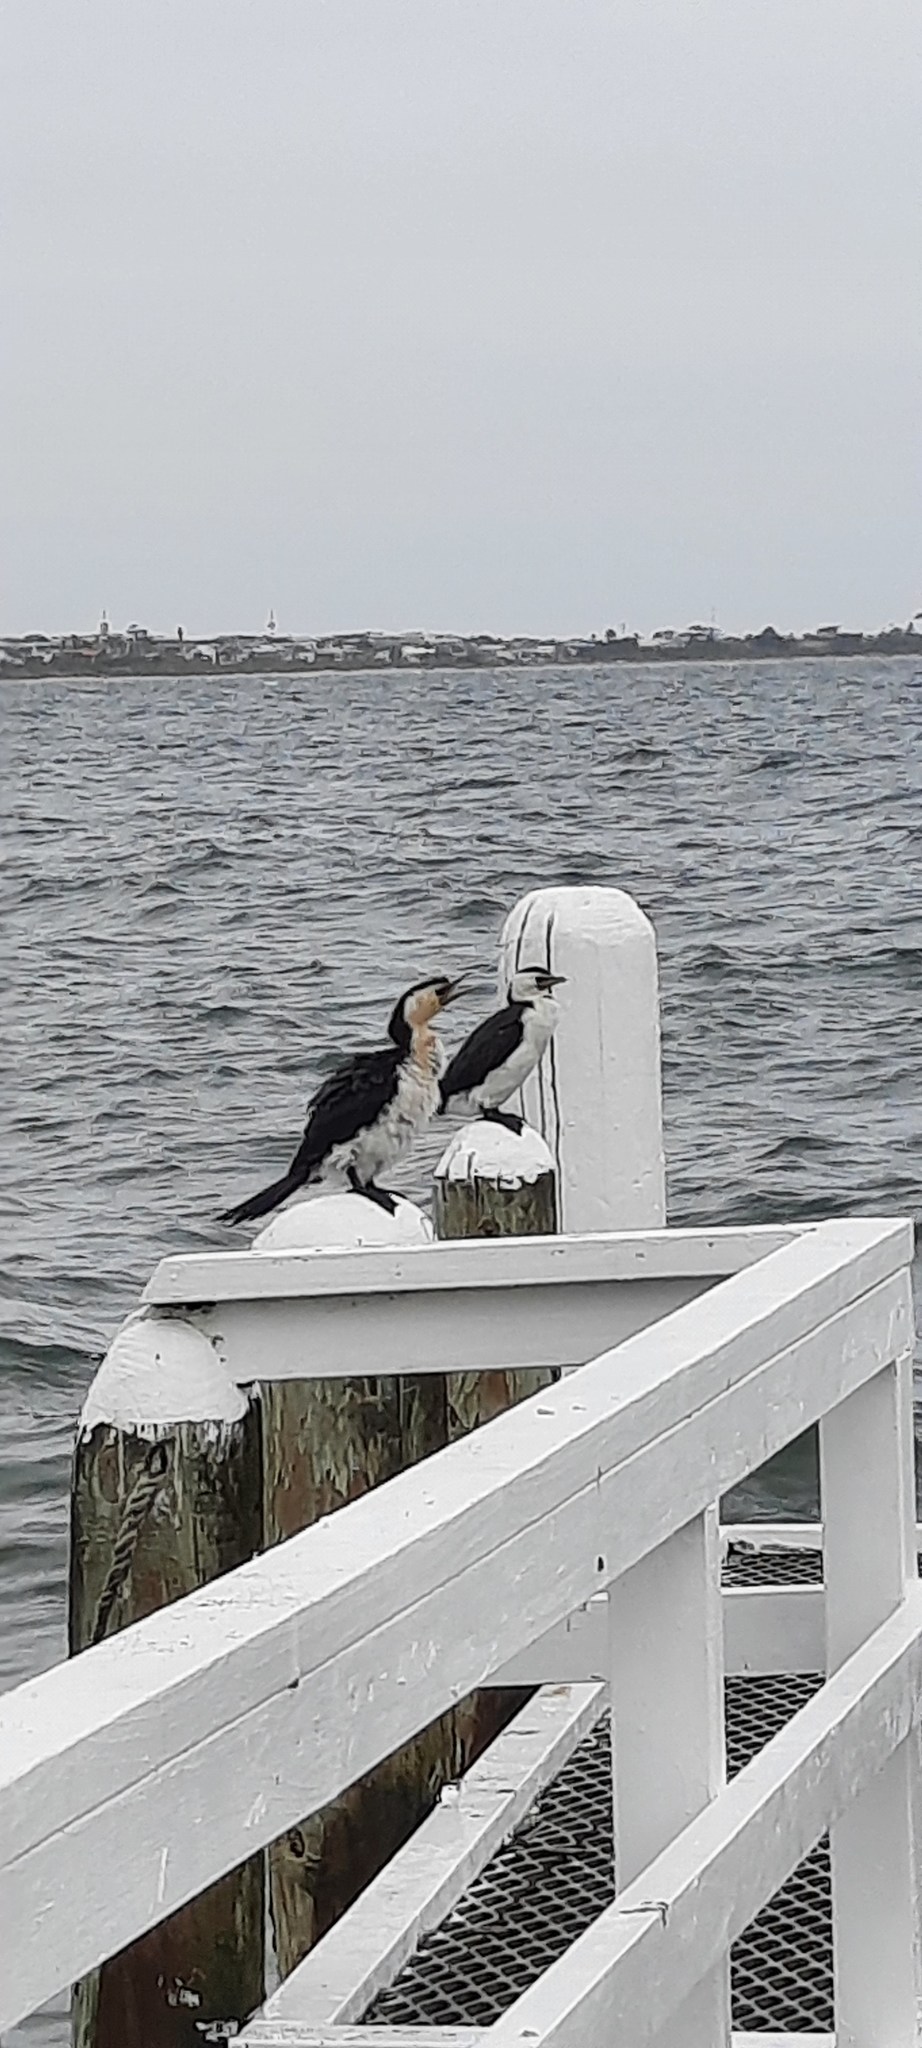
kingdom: Animalia
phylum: Chordata
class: Aves
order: Suliformes
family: Phalacrocoracidae
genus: Microcarbo
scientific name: Microcarbo melanoleucos
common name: Little pied cormorant
